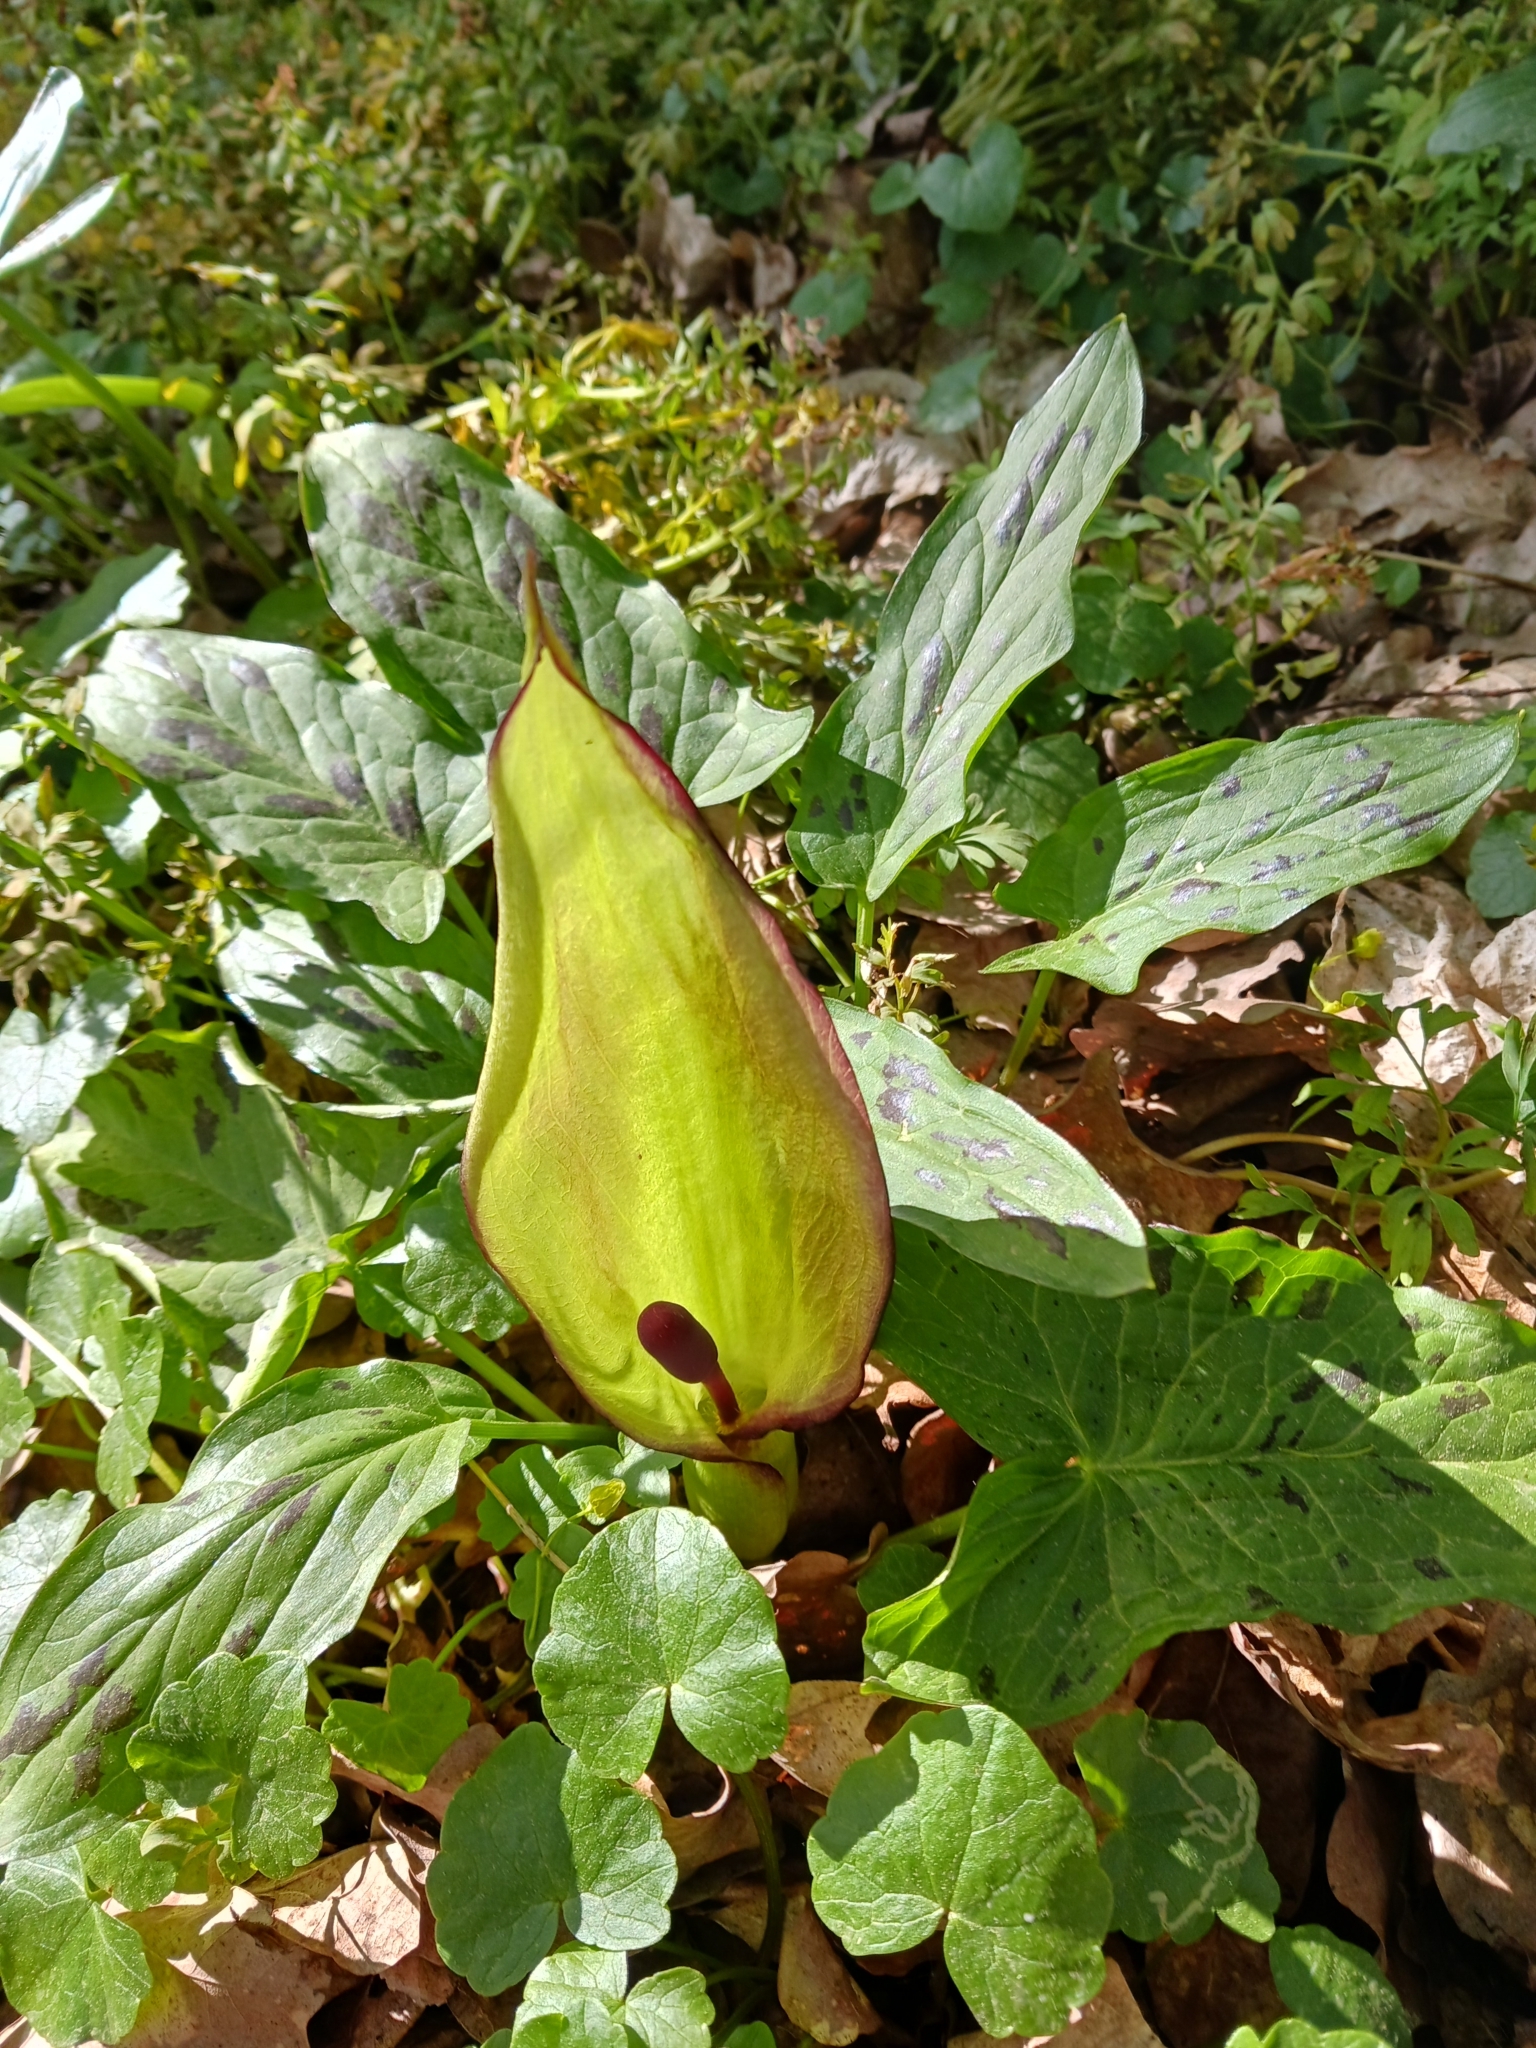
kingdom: Plantae
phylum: Tracheophyta
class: Liliopsida
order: Alismatales
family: Araceae
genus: Arum
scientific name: Arum maculatum
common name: Lords-and-ladies
